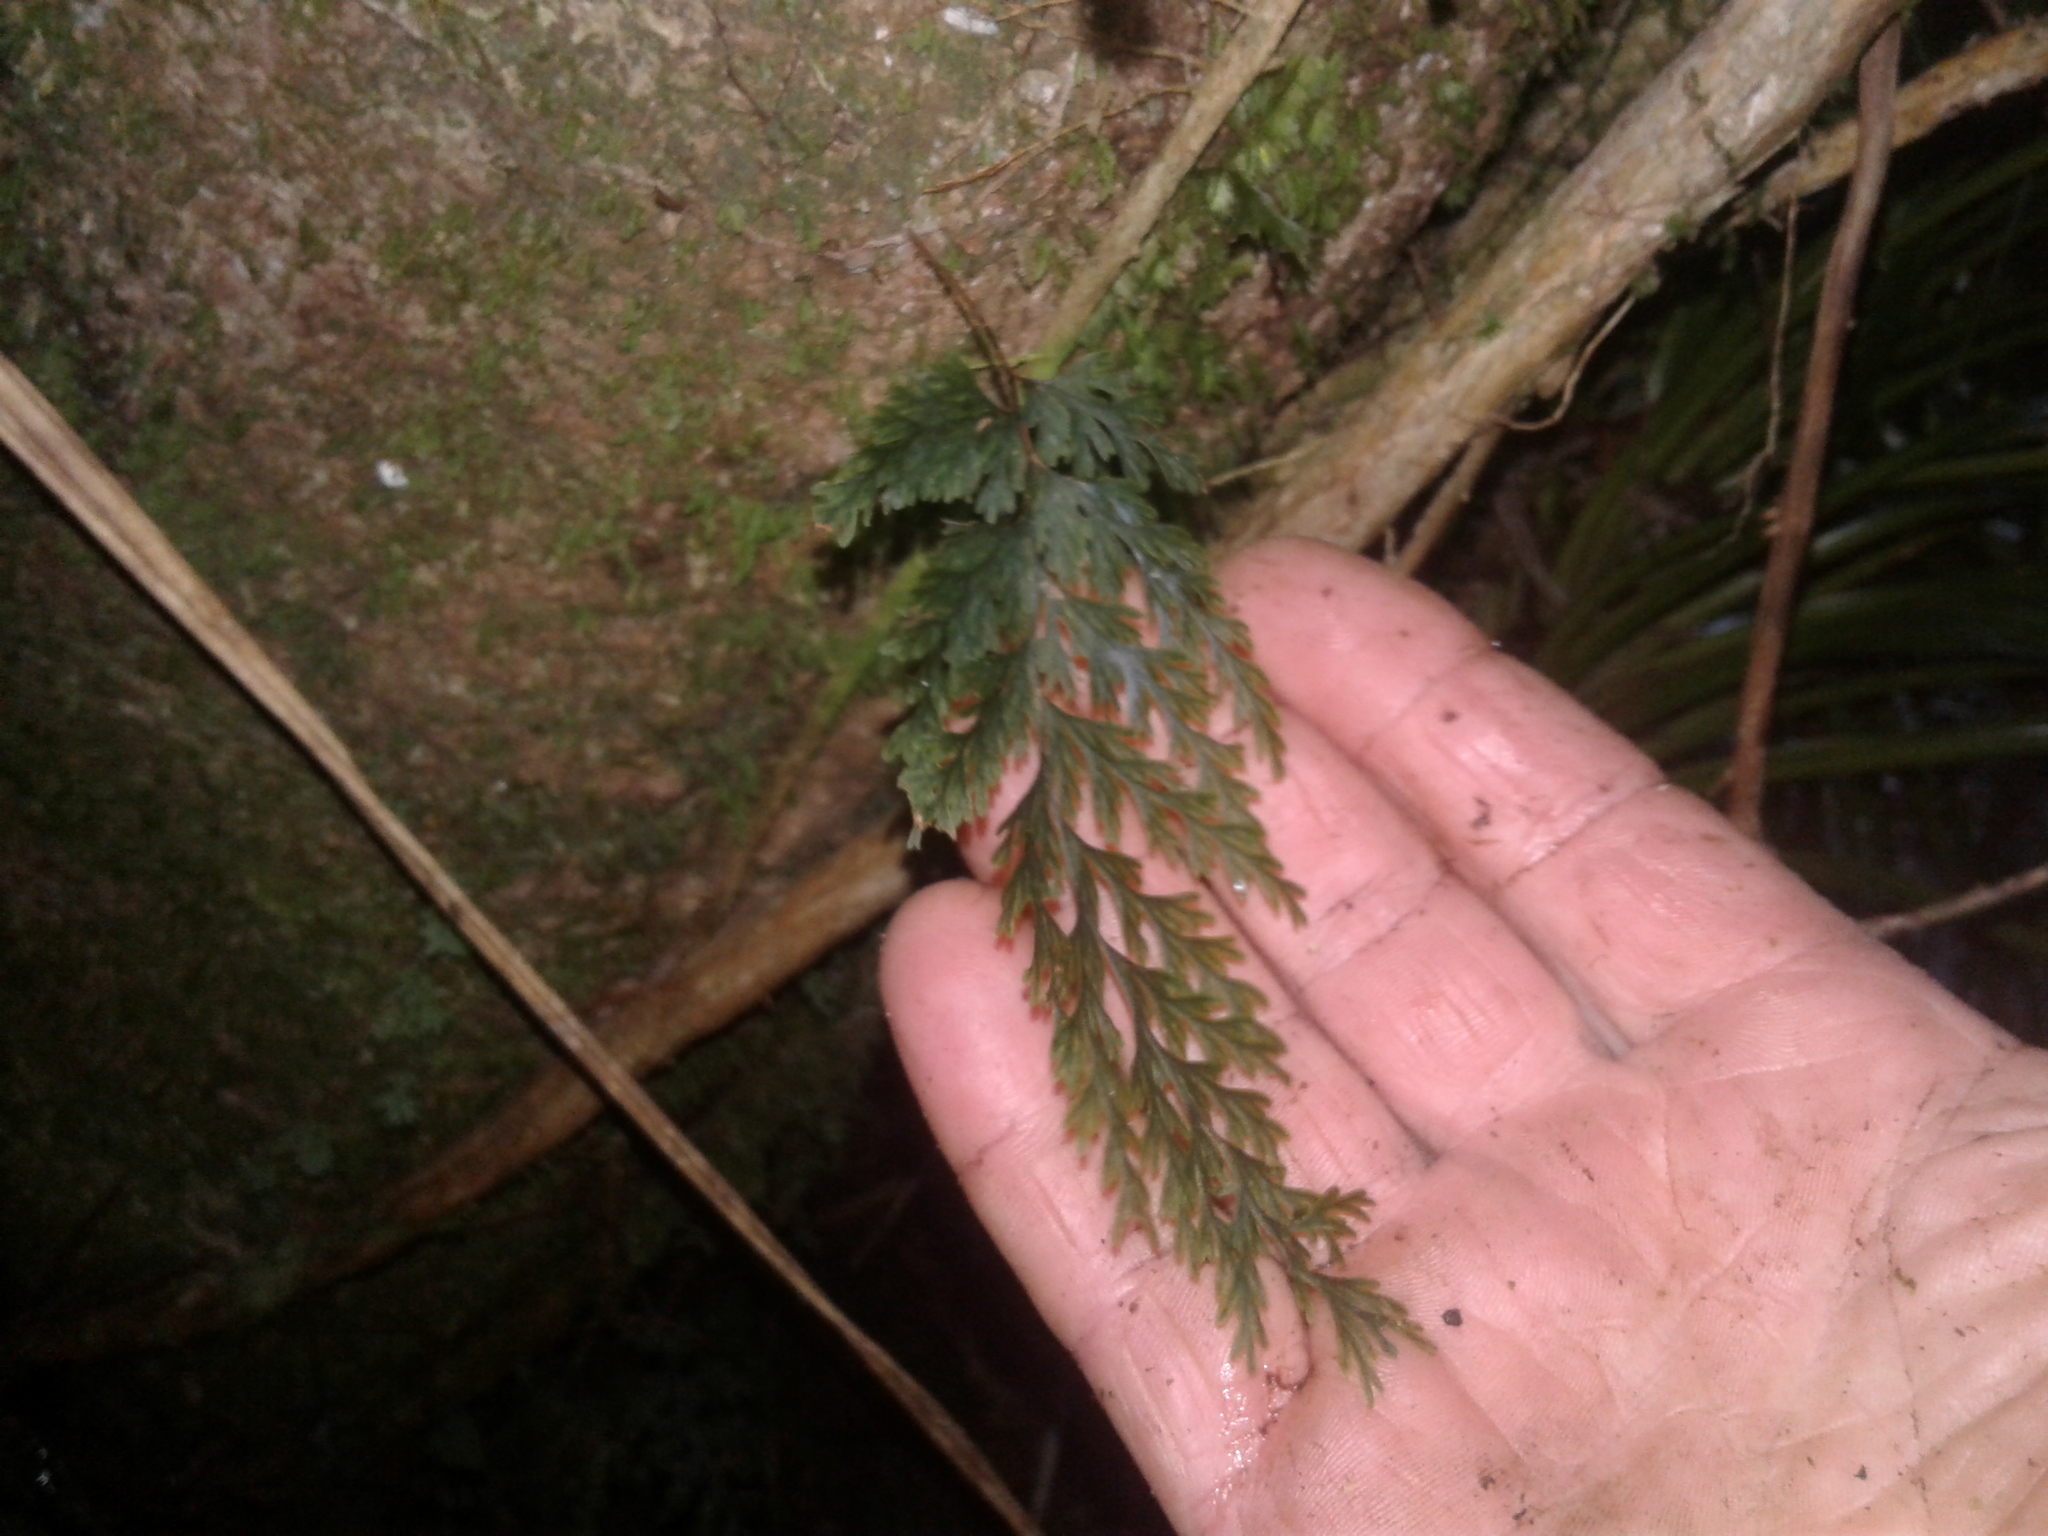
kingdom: Plantae
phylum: Tracheophyta
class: Polypodiopsida
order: Hymenophyllales
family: Hymenophyllaceae
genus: Hymenophyllum
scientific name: Hymenophyllum scabrum
